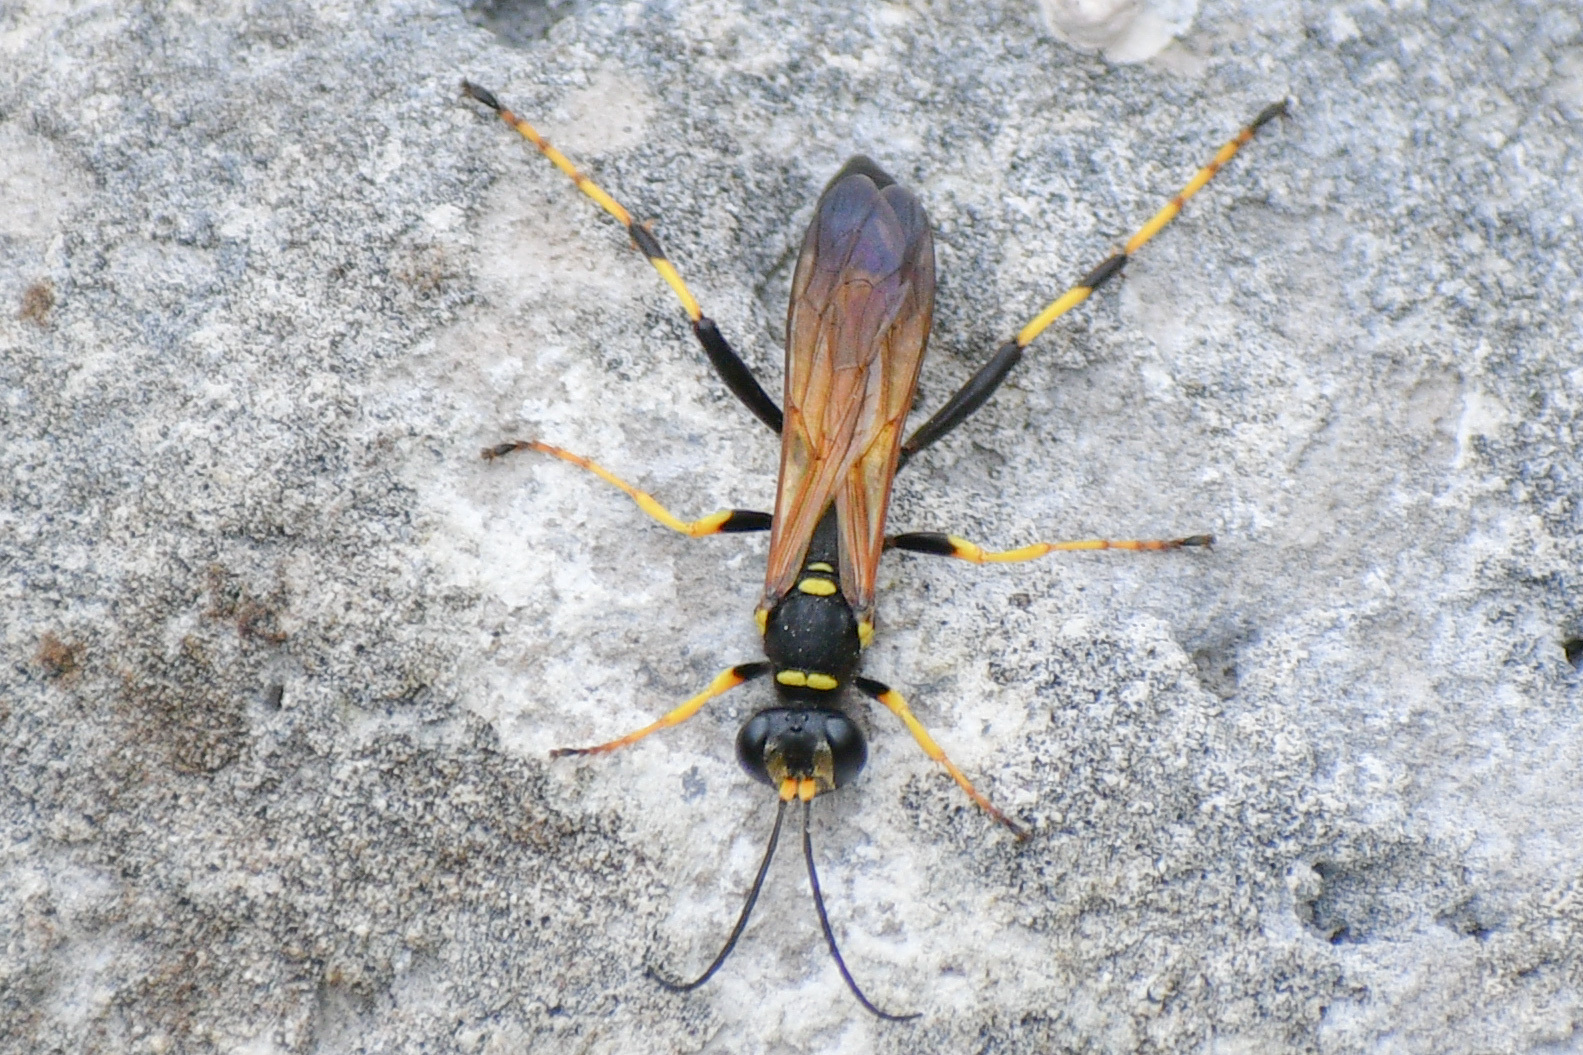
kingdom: Animalia
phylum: Arthropoda
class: Insecta
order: Hymenoptera
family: Sphecidae
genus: Sceliphron
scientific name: Sceliphron caementarium
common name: Mud dauber
